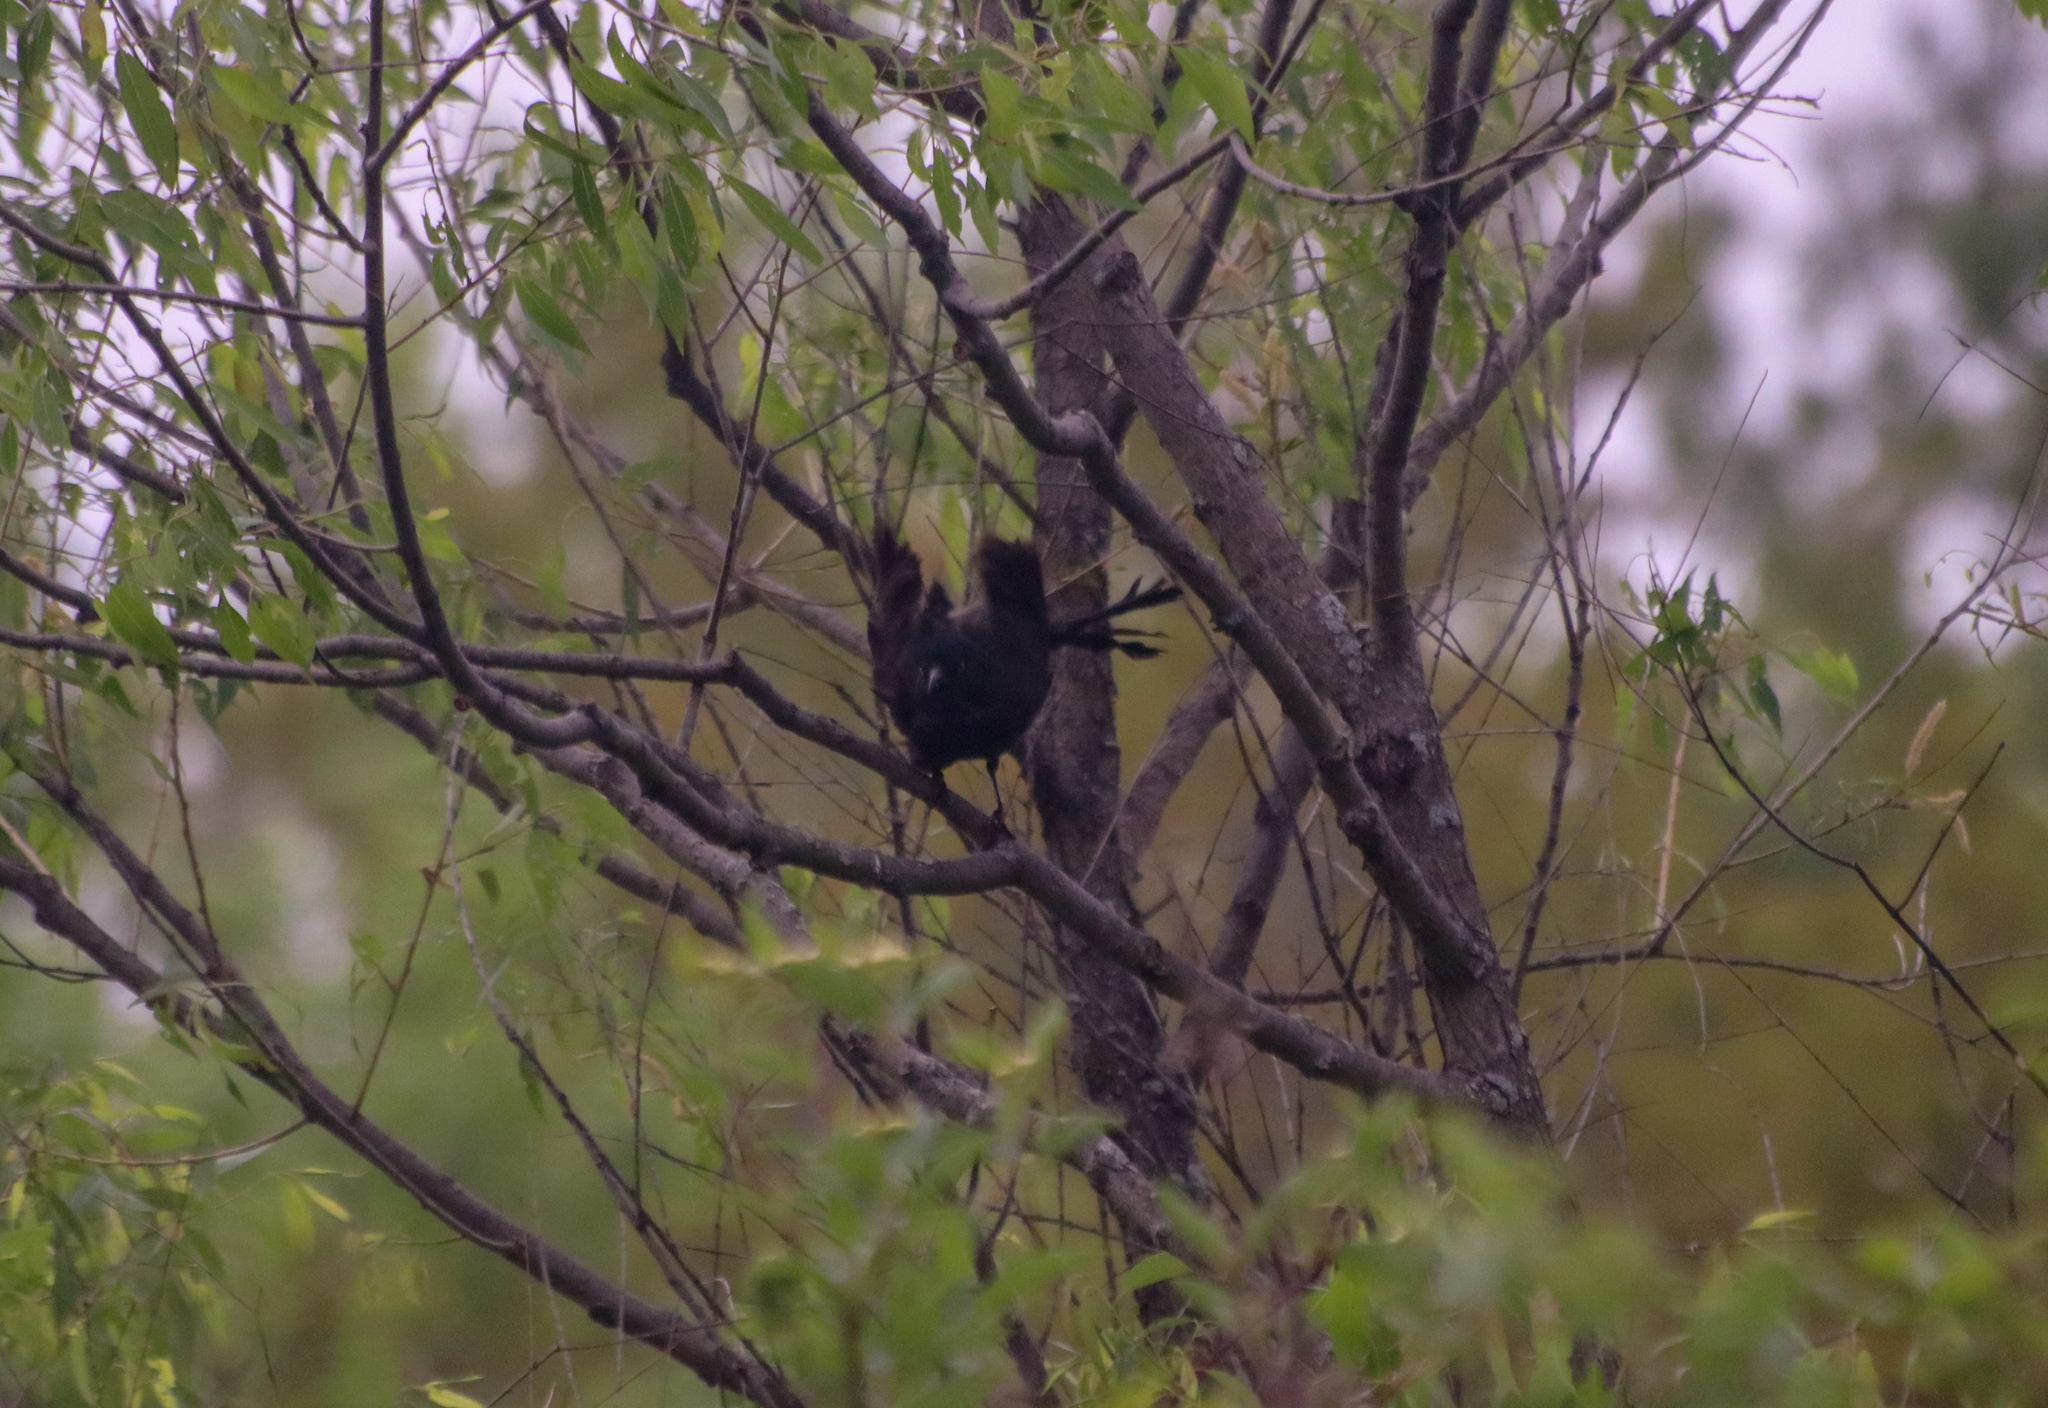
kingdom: Animalia
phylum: Chordata
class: Aves
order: Passeriformes
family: Icteridae
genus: Quiscalus
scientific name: Quiscalus quiscula
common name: Common grackle
